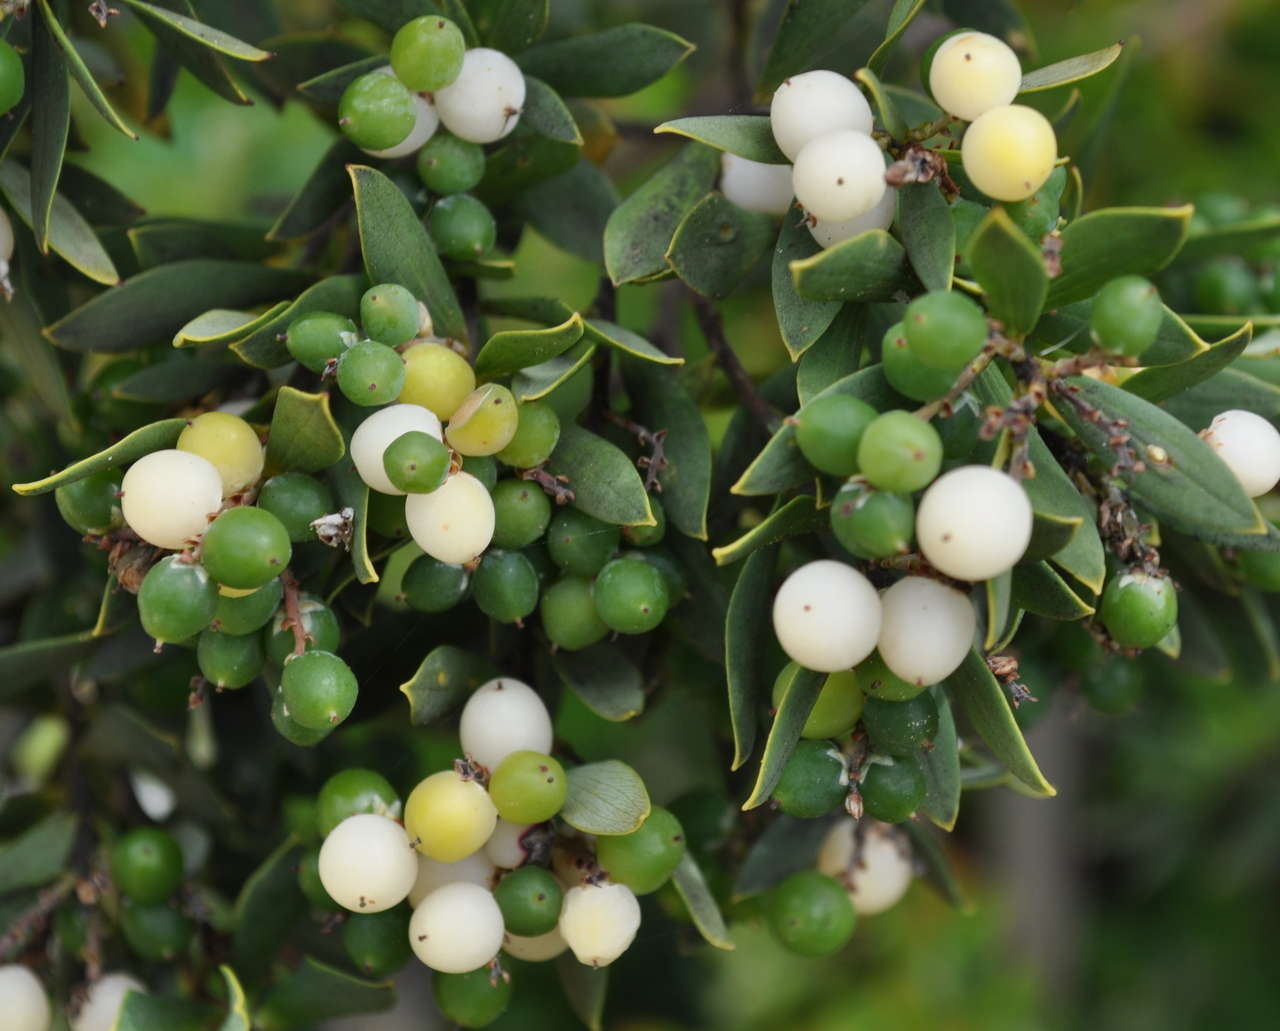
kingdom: Plantae
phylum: Tracheophyta
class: Magnoliopsida
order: Ericales
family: Ericaceae
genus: Leptecophylla
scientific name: Leptecophylla parvifolia
